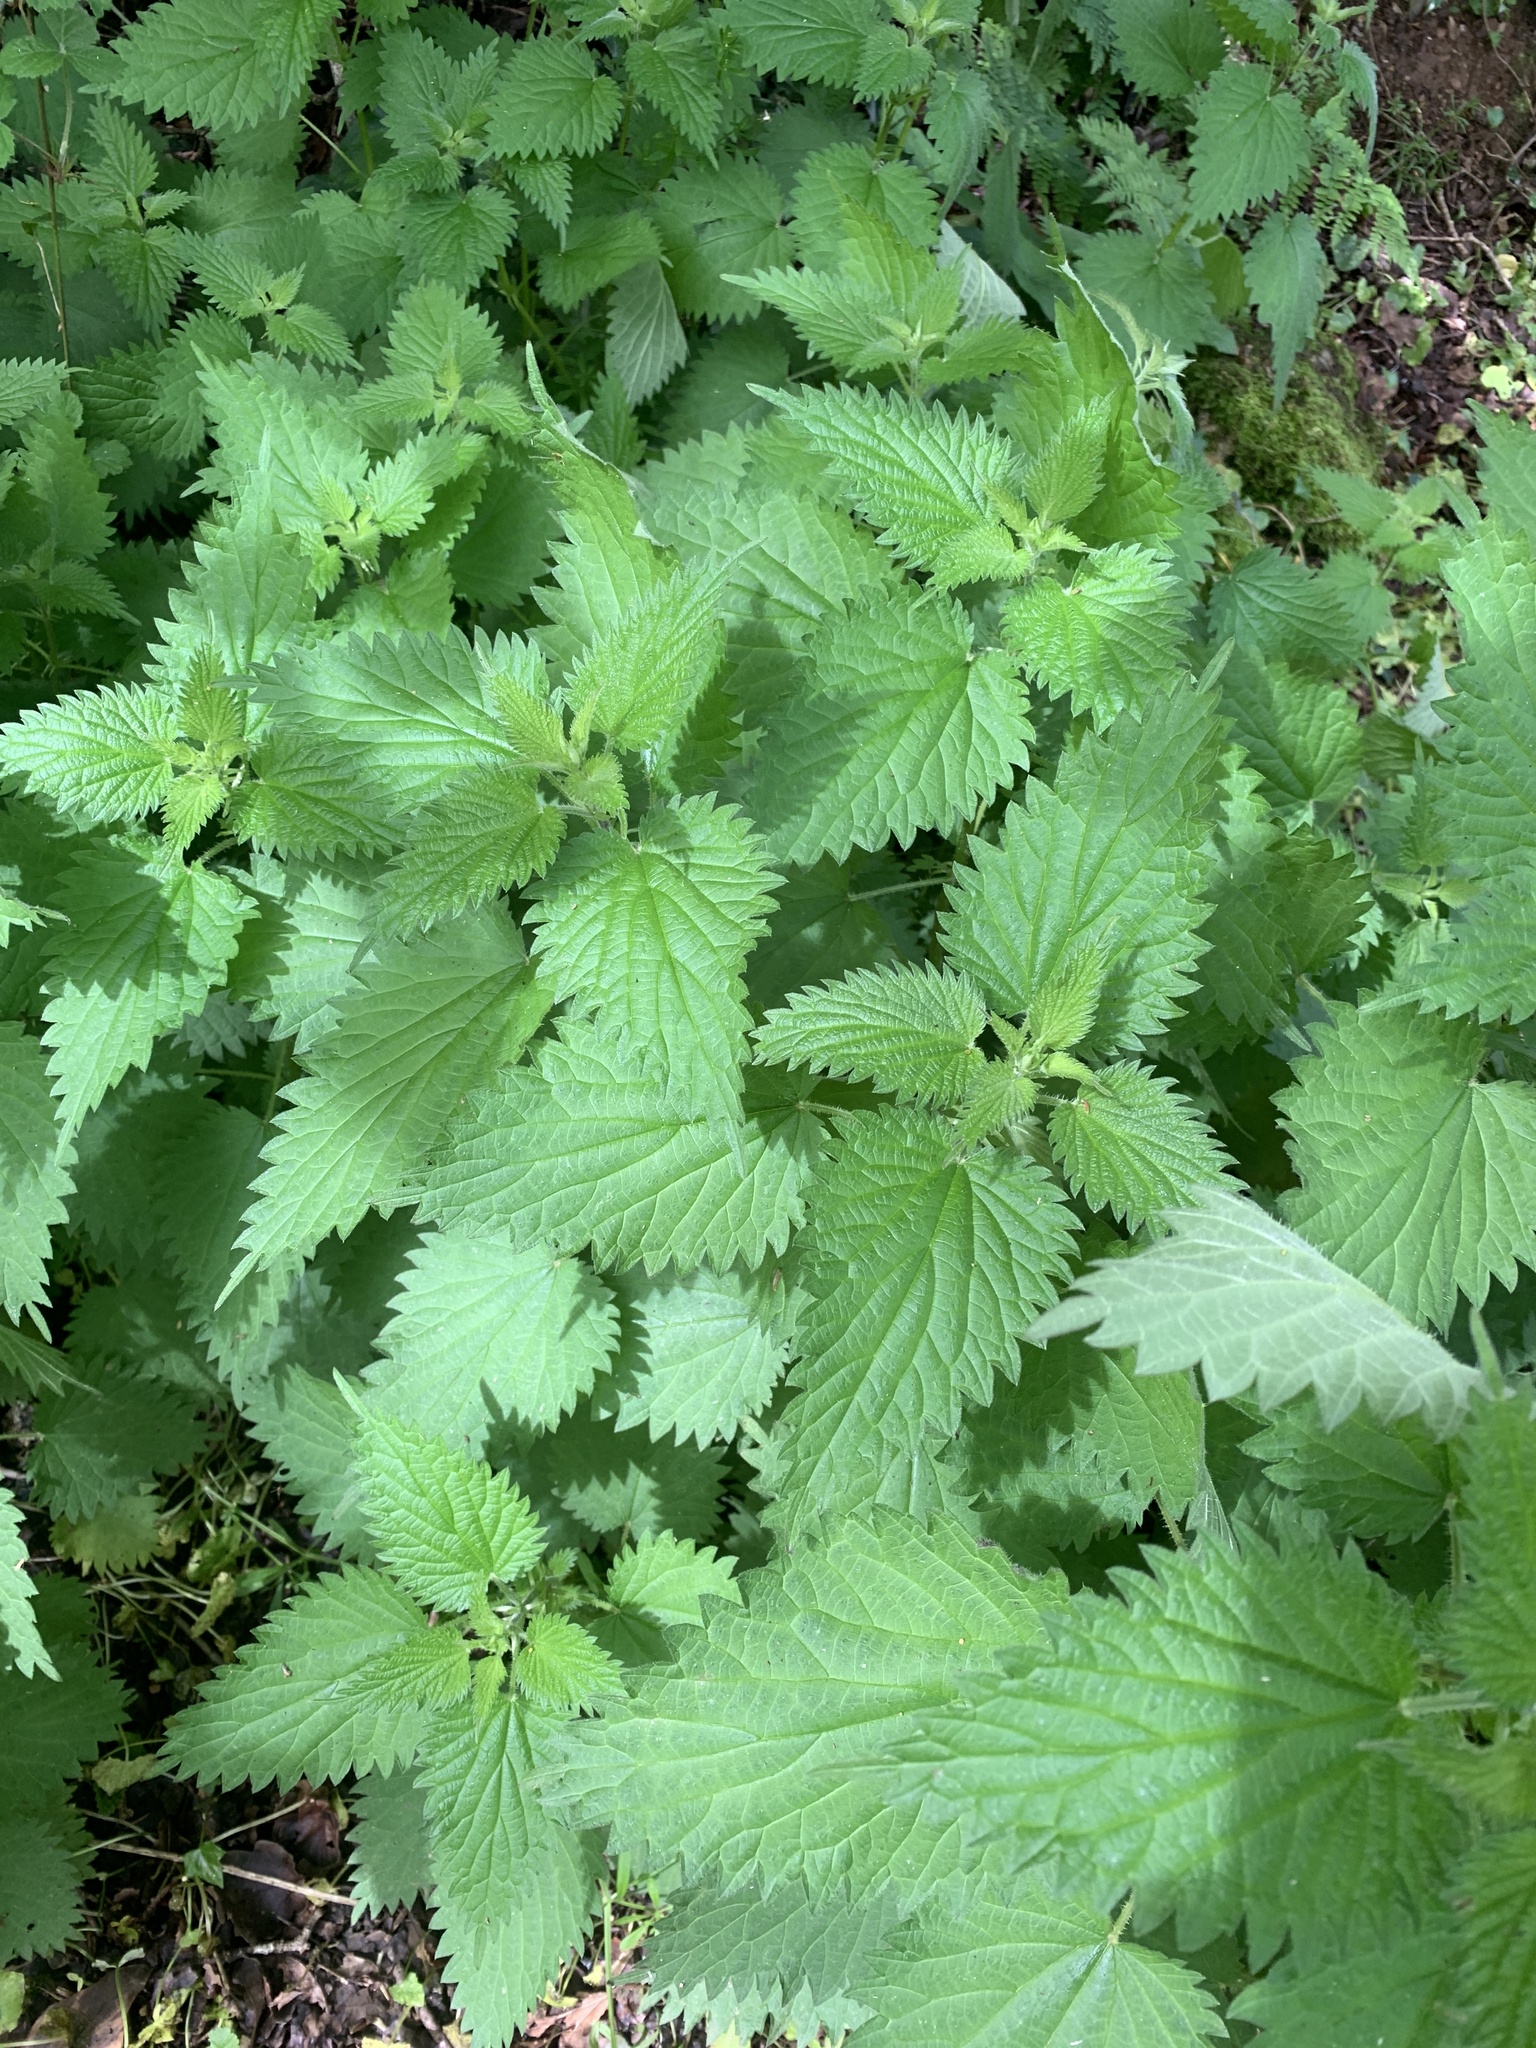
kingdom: Plantae
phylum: Tracheophyta
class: Magnoliopsida
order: Rosales
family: Urticaceae
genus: Urtica
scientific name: Urtica dioica
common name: Common nettle
